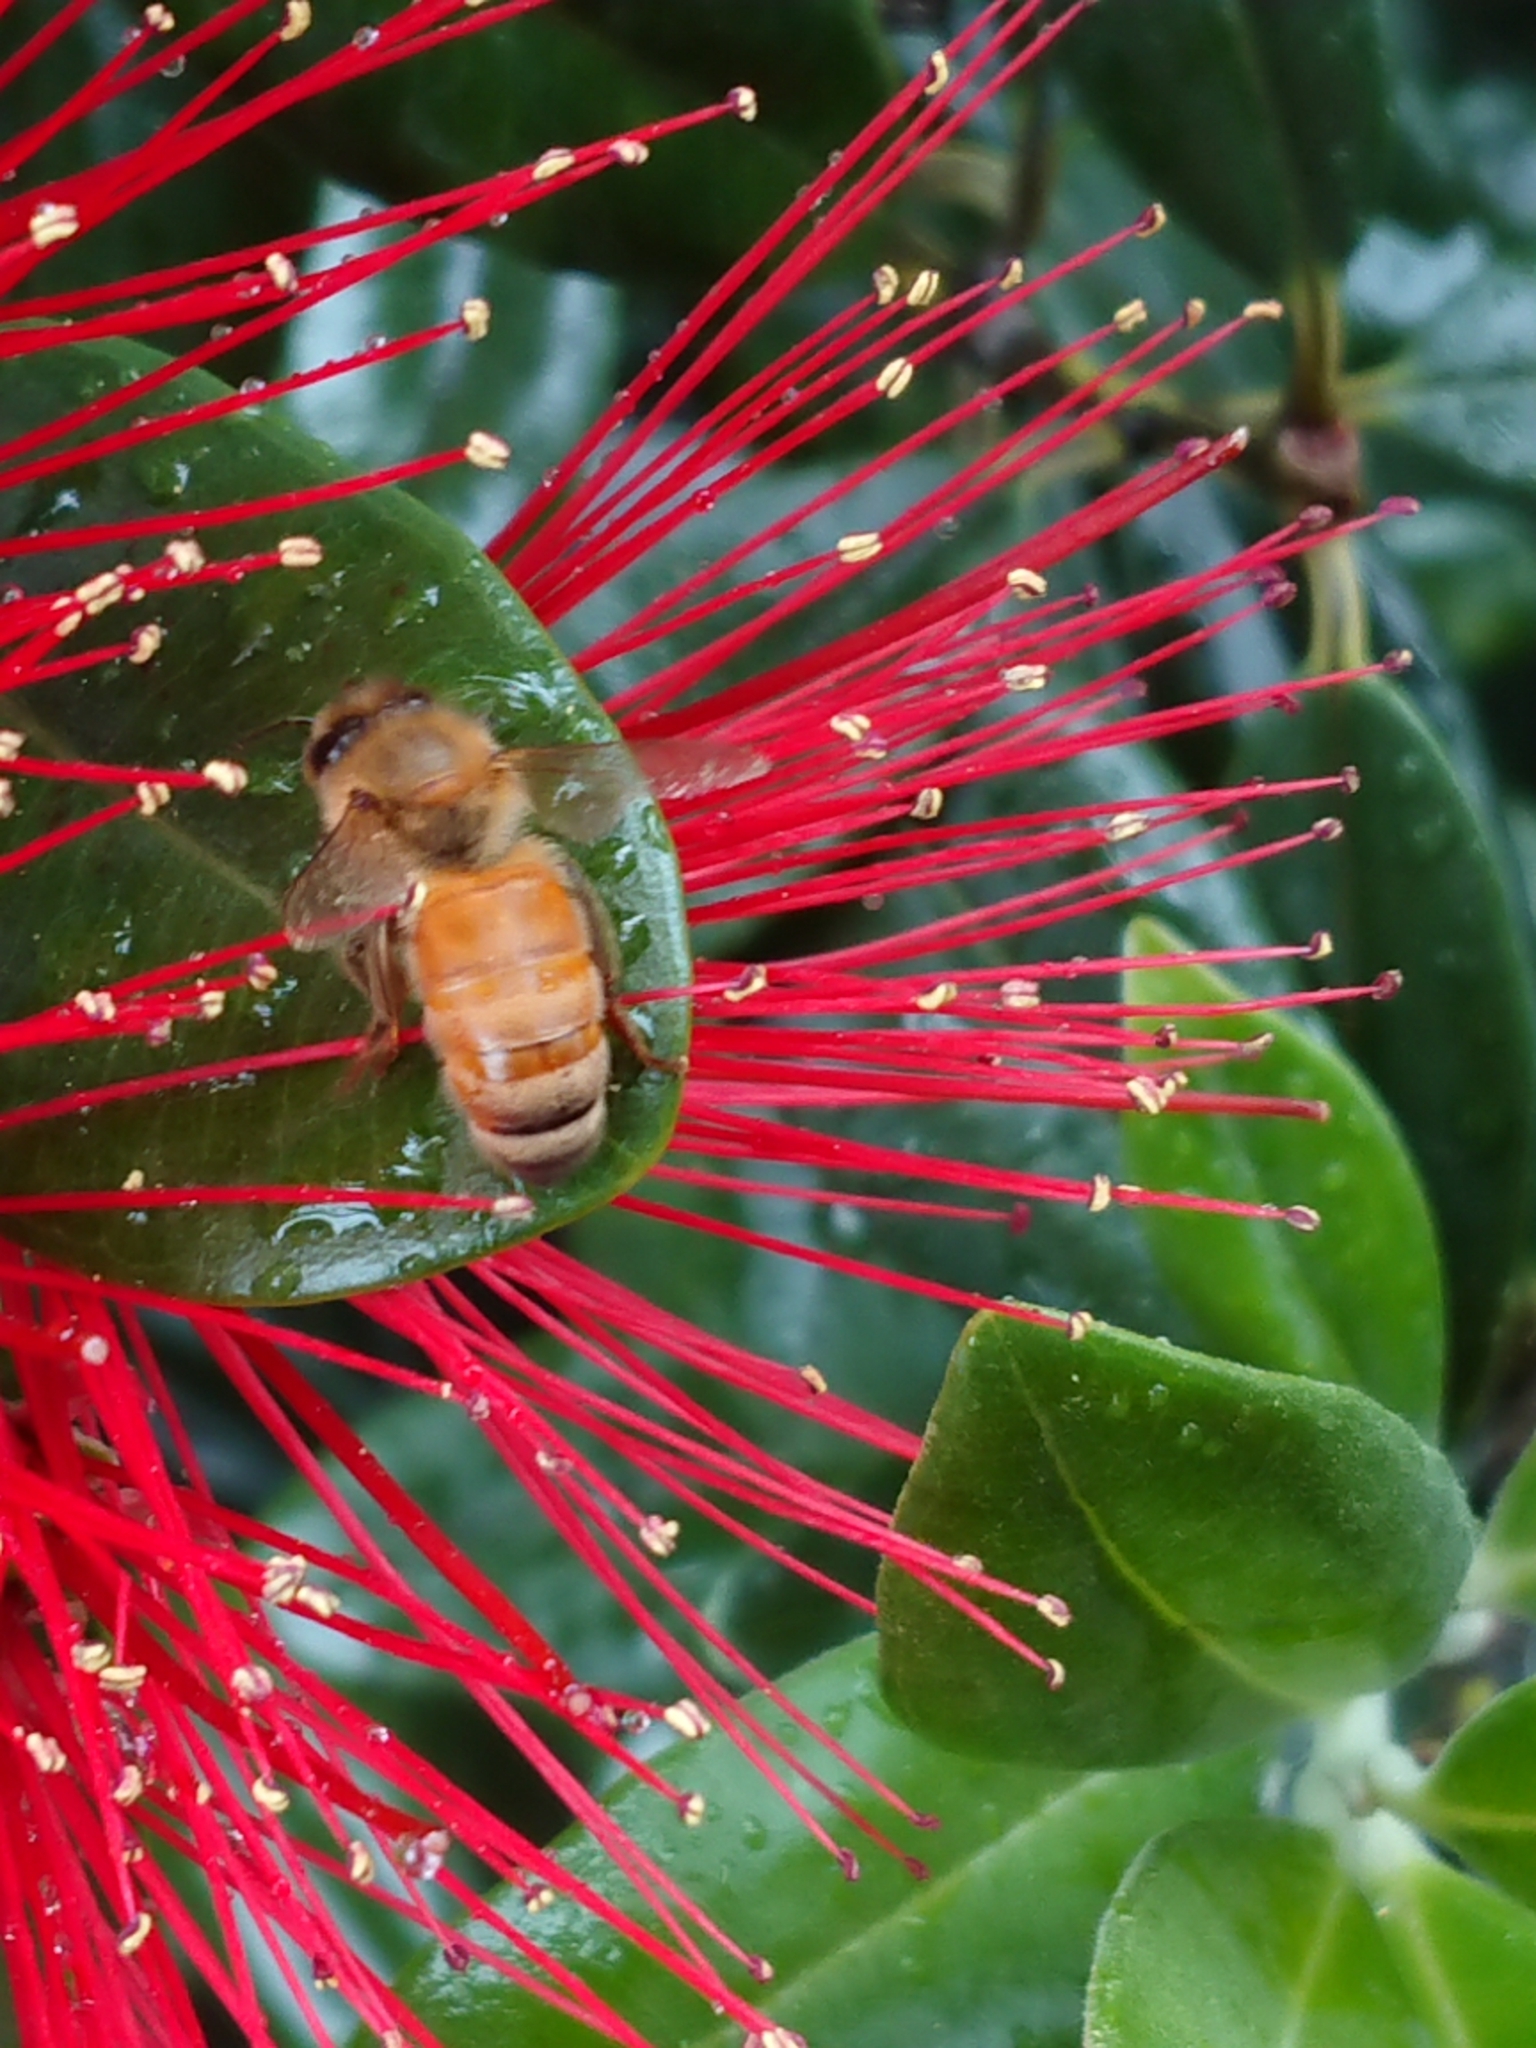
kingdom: Animalia
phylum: Arthropoda
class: Insecta
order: Hymenoptera
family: Apidae
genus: Apis
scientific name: Apis mellifera
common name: Honey bee
